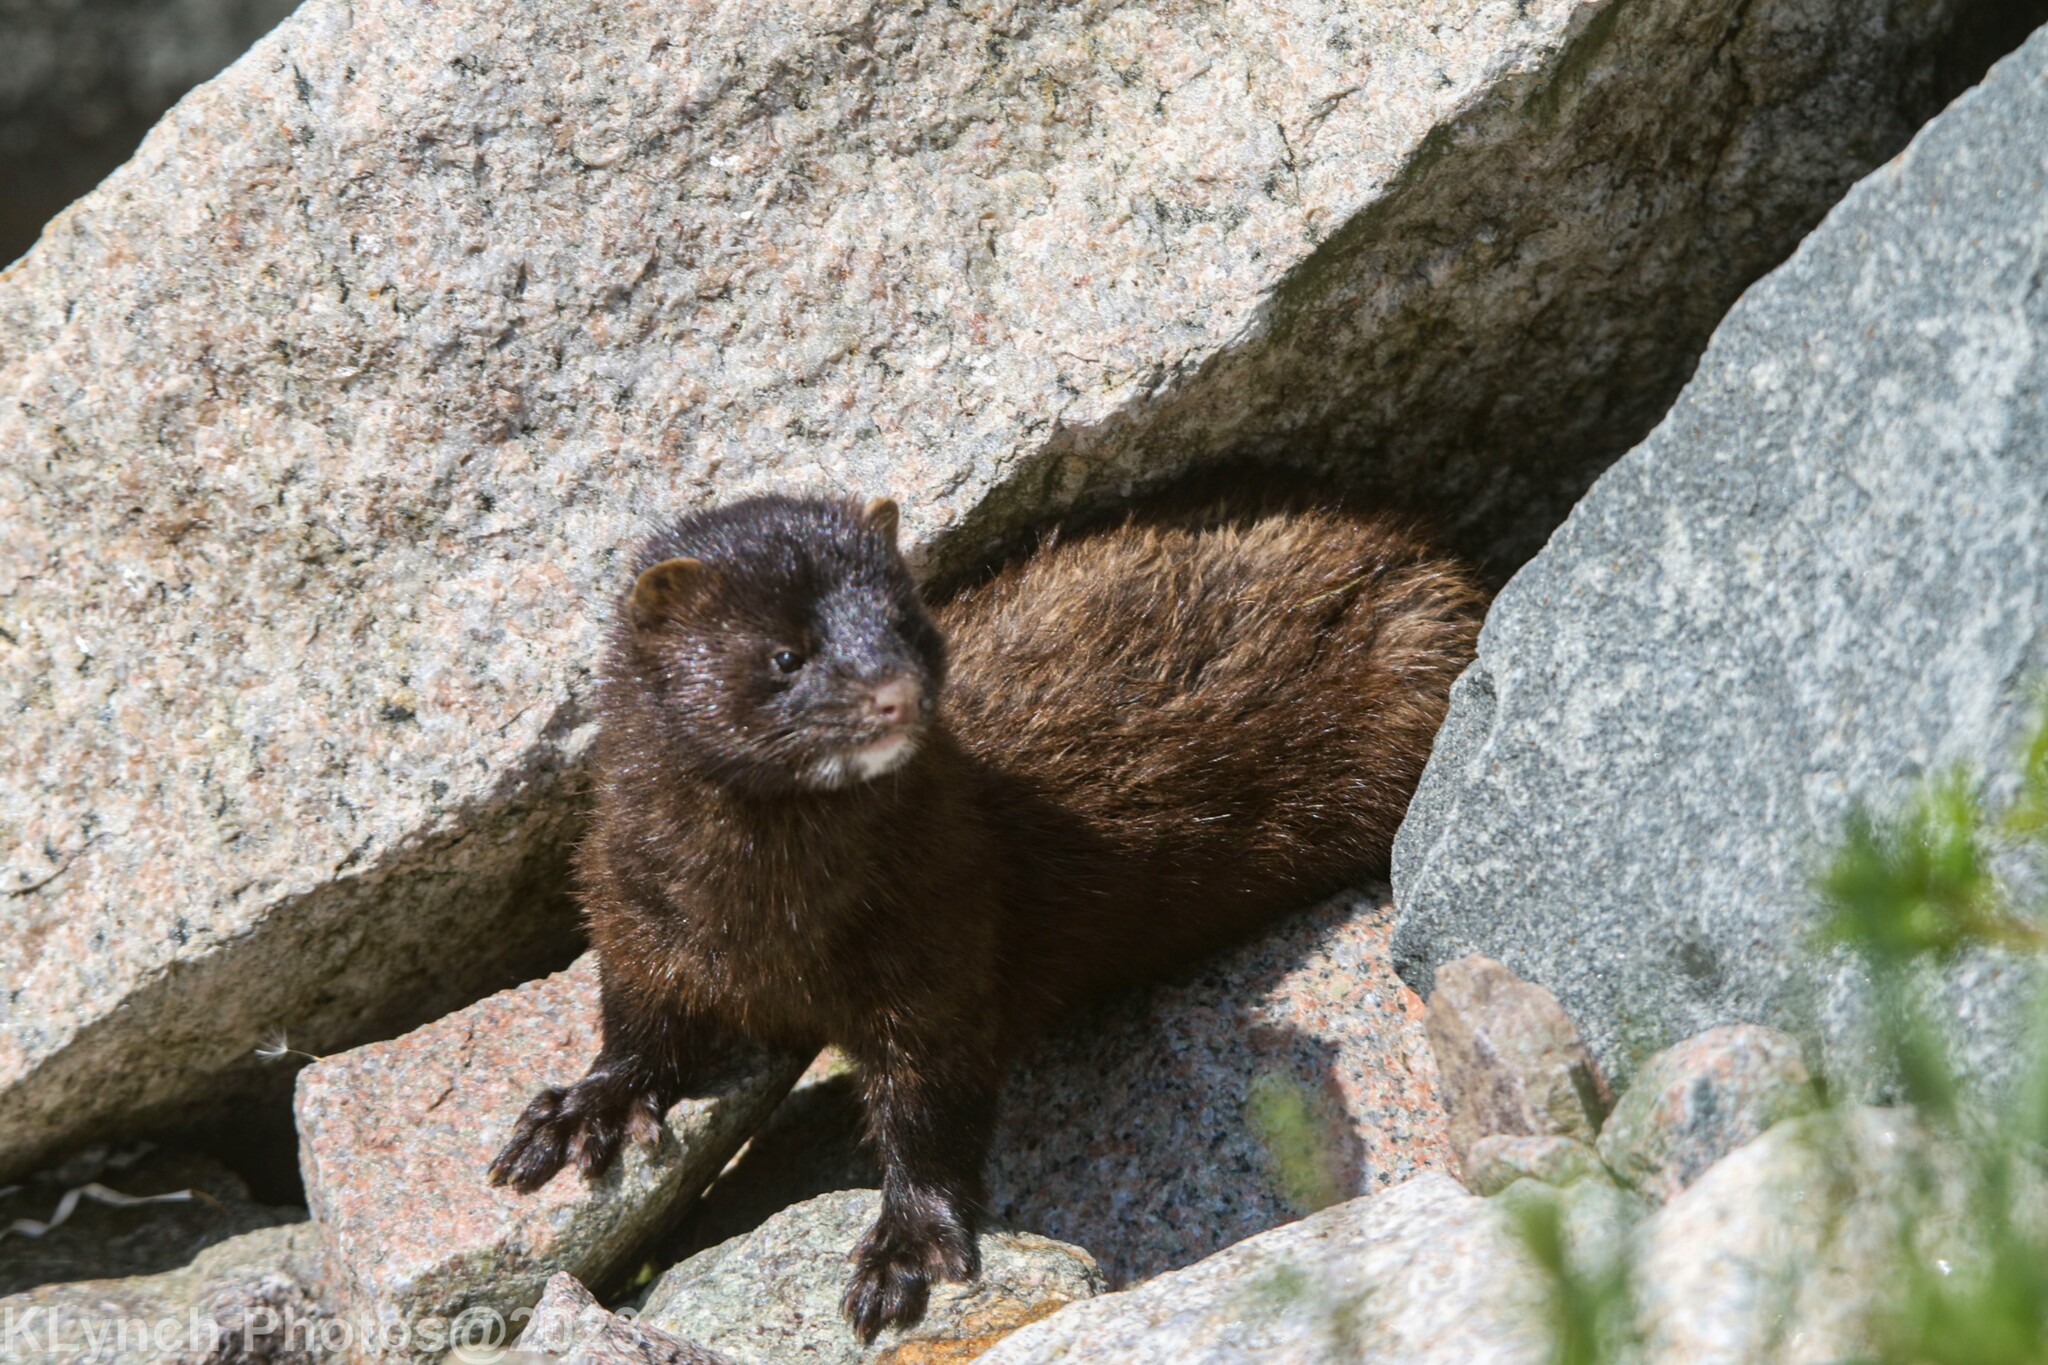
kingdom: Animalia
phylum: Chordata
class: Mammalia
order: Carnivora
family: Mustelidae
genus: Mustela
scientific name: Mustela
